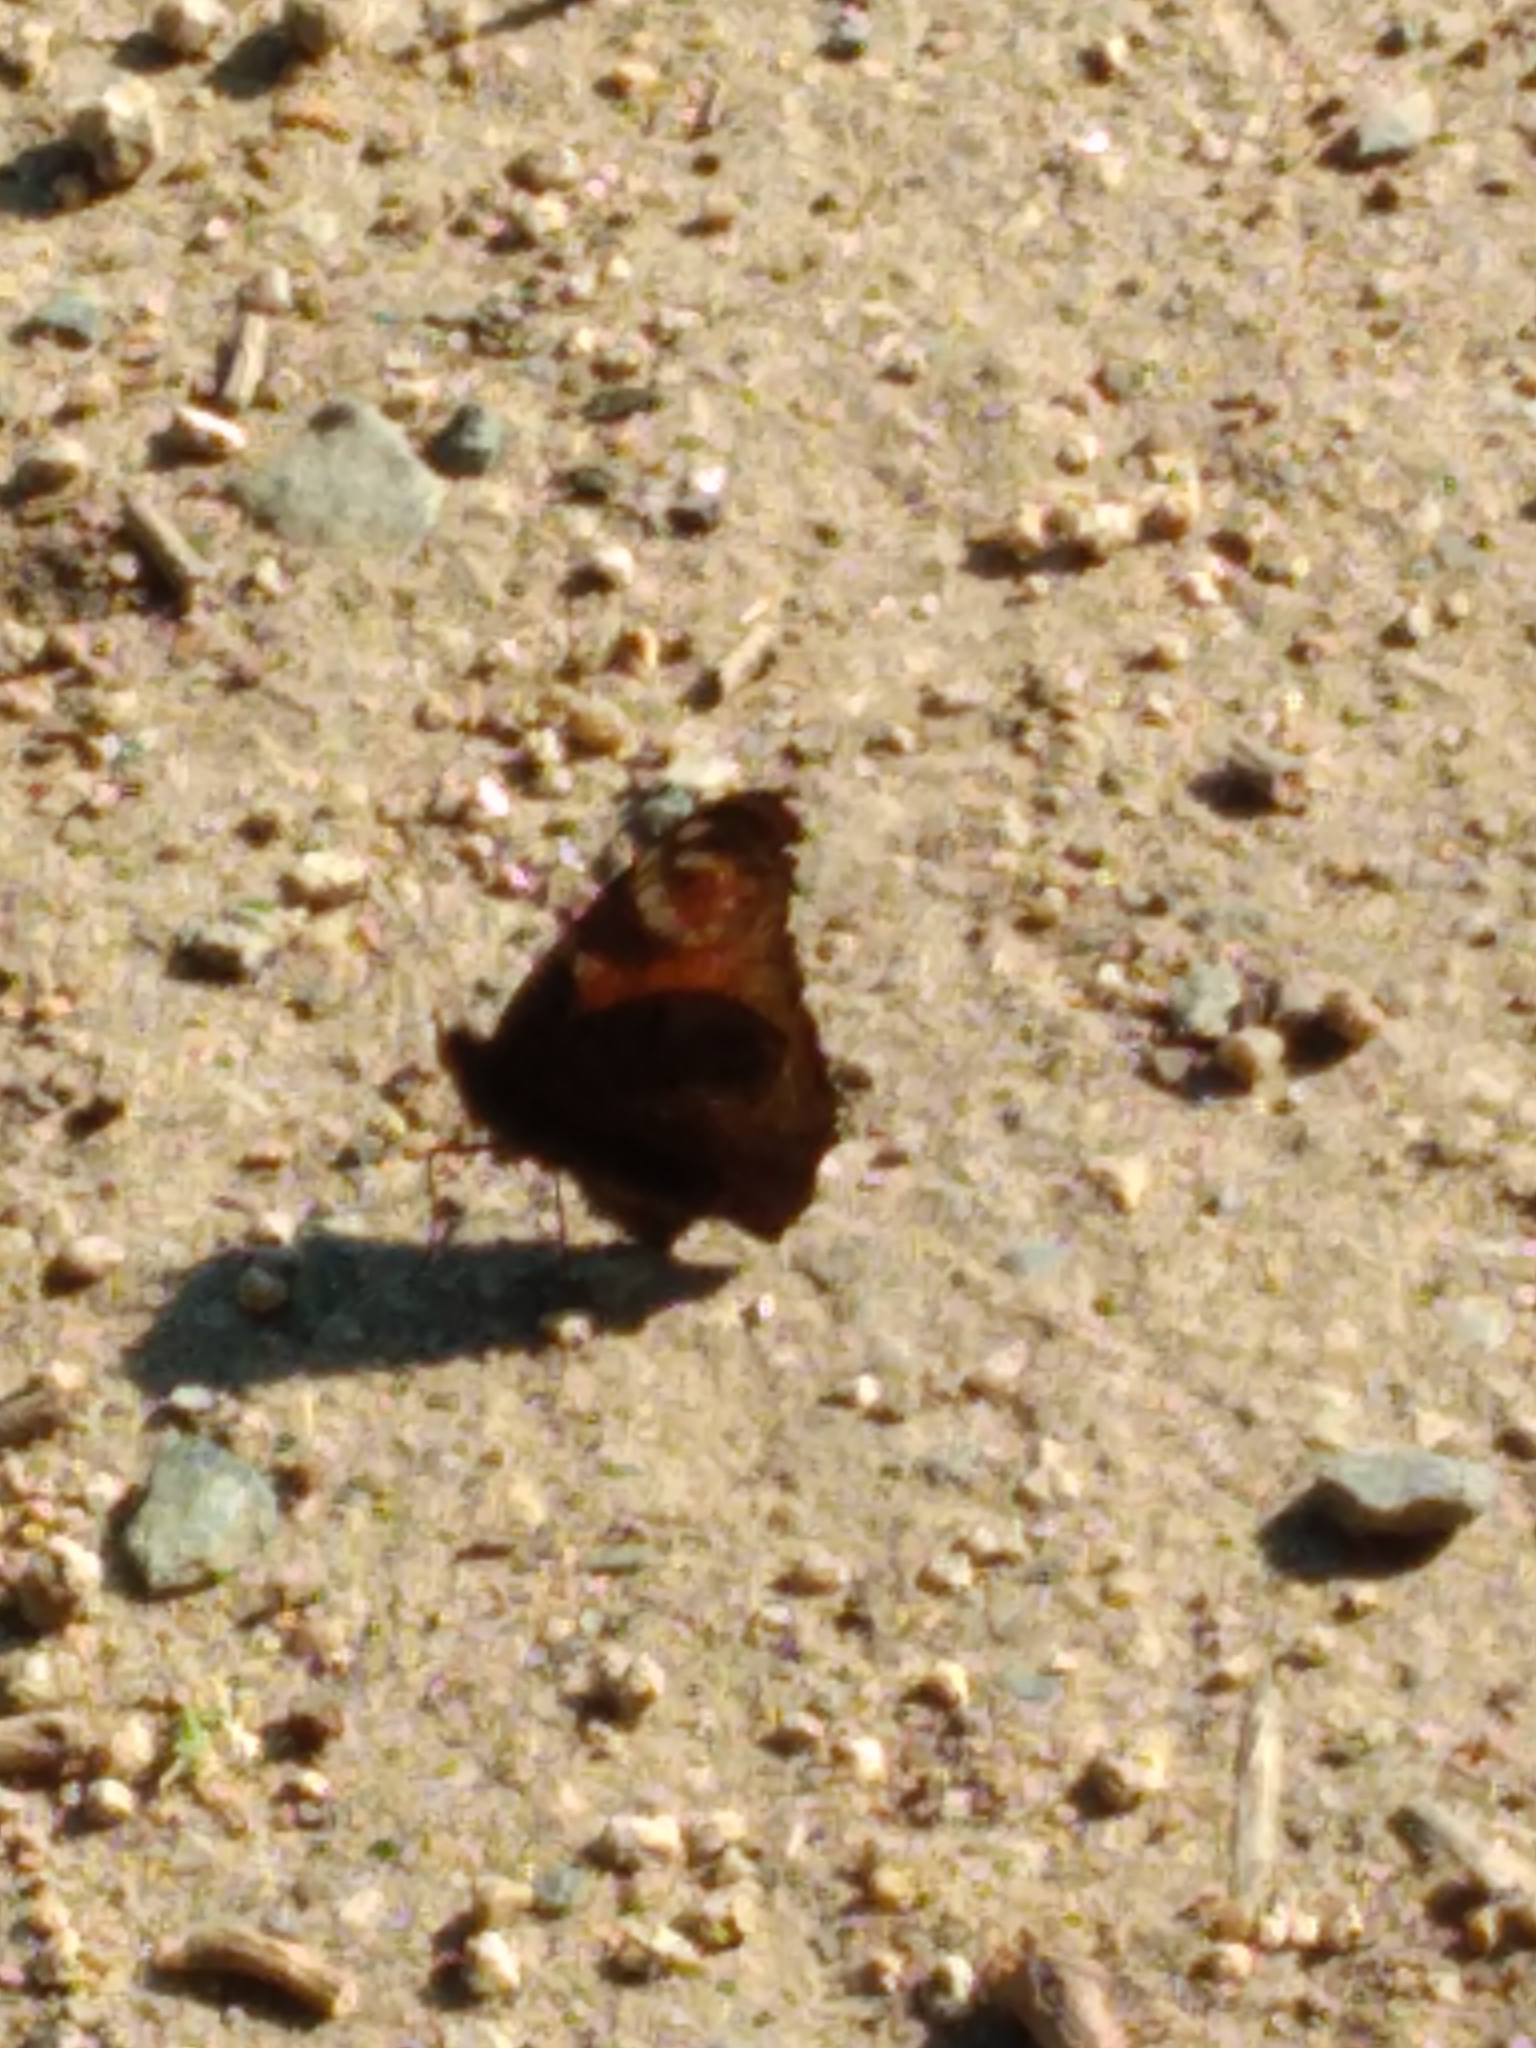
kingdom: Animalia
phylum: Arthropoda
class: Insecta
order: Lepidoptera
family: Nymphalidae
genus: Aglais
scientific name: Aglais io
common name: Peacock
